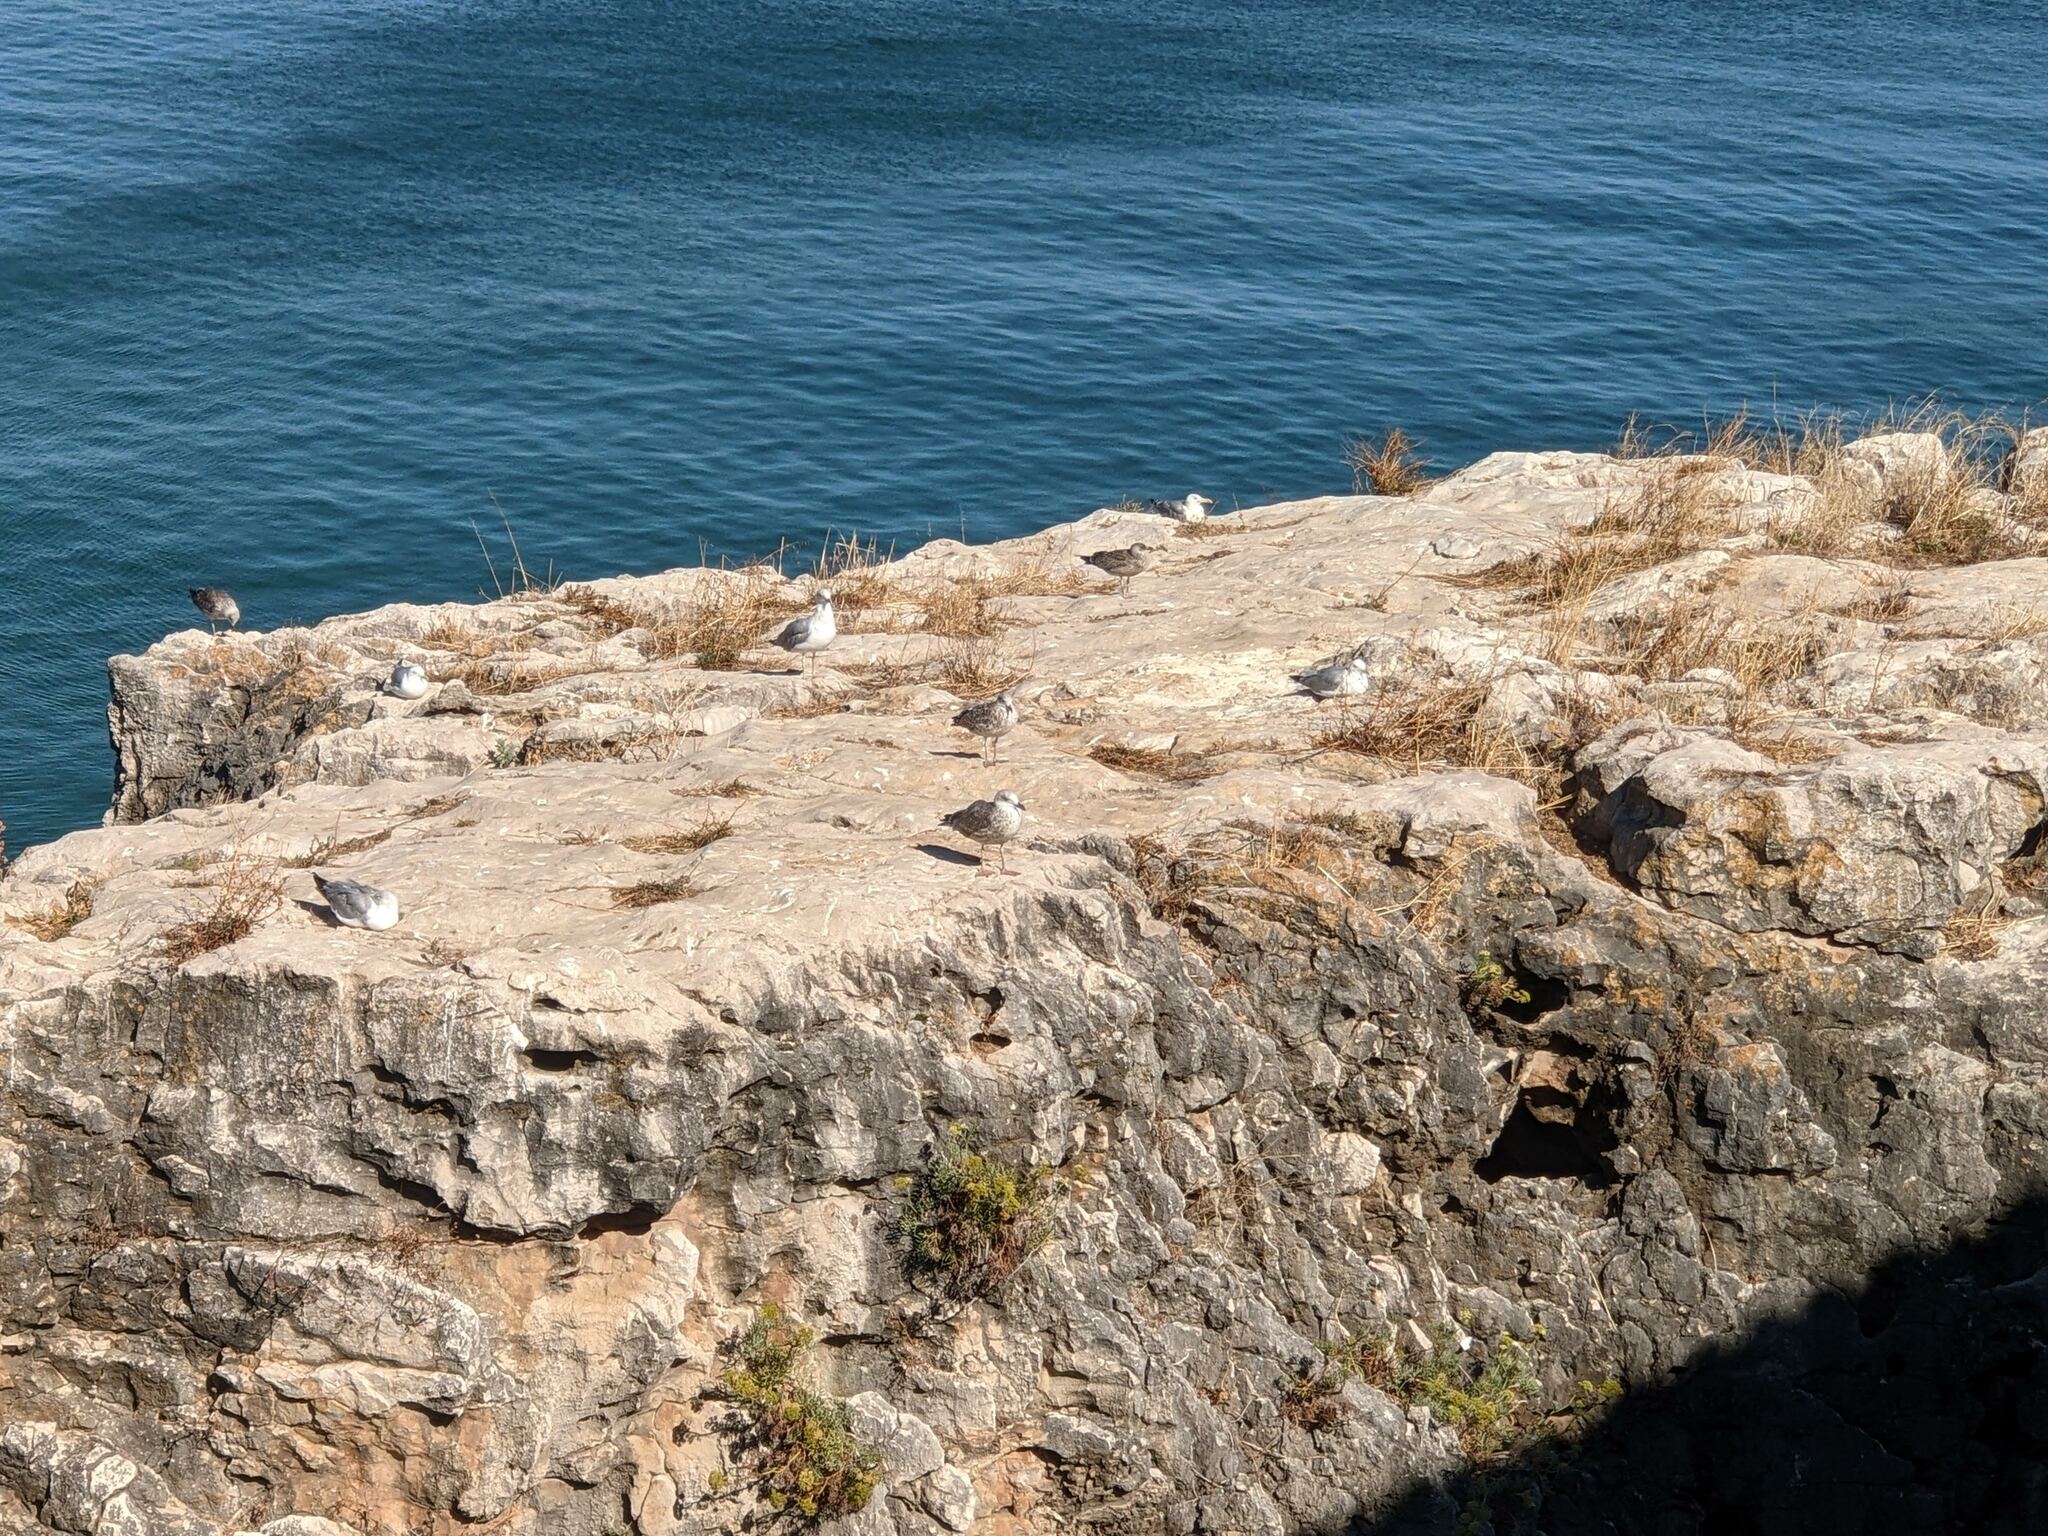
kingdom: Animalia
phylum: Chordata
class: Aves
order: Charadriiformes
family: Laridae
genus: Larus
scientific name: Larus michahellis
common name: Yellow-legged gull
